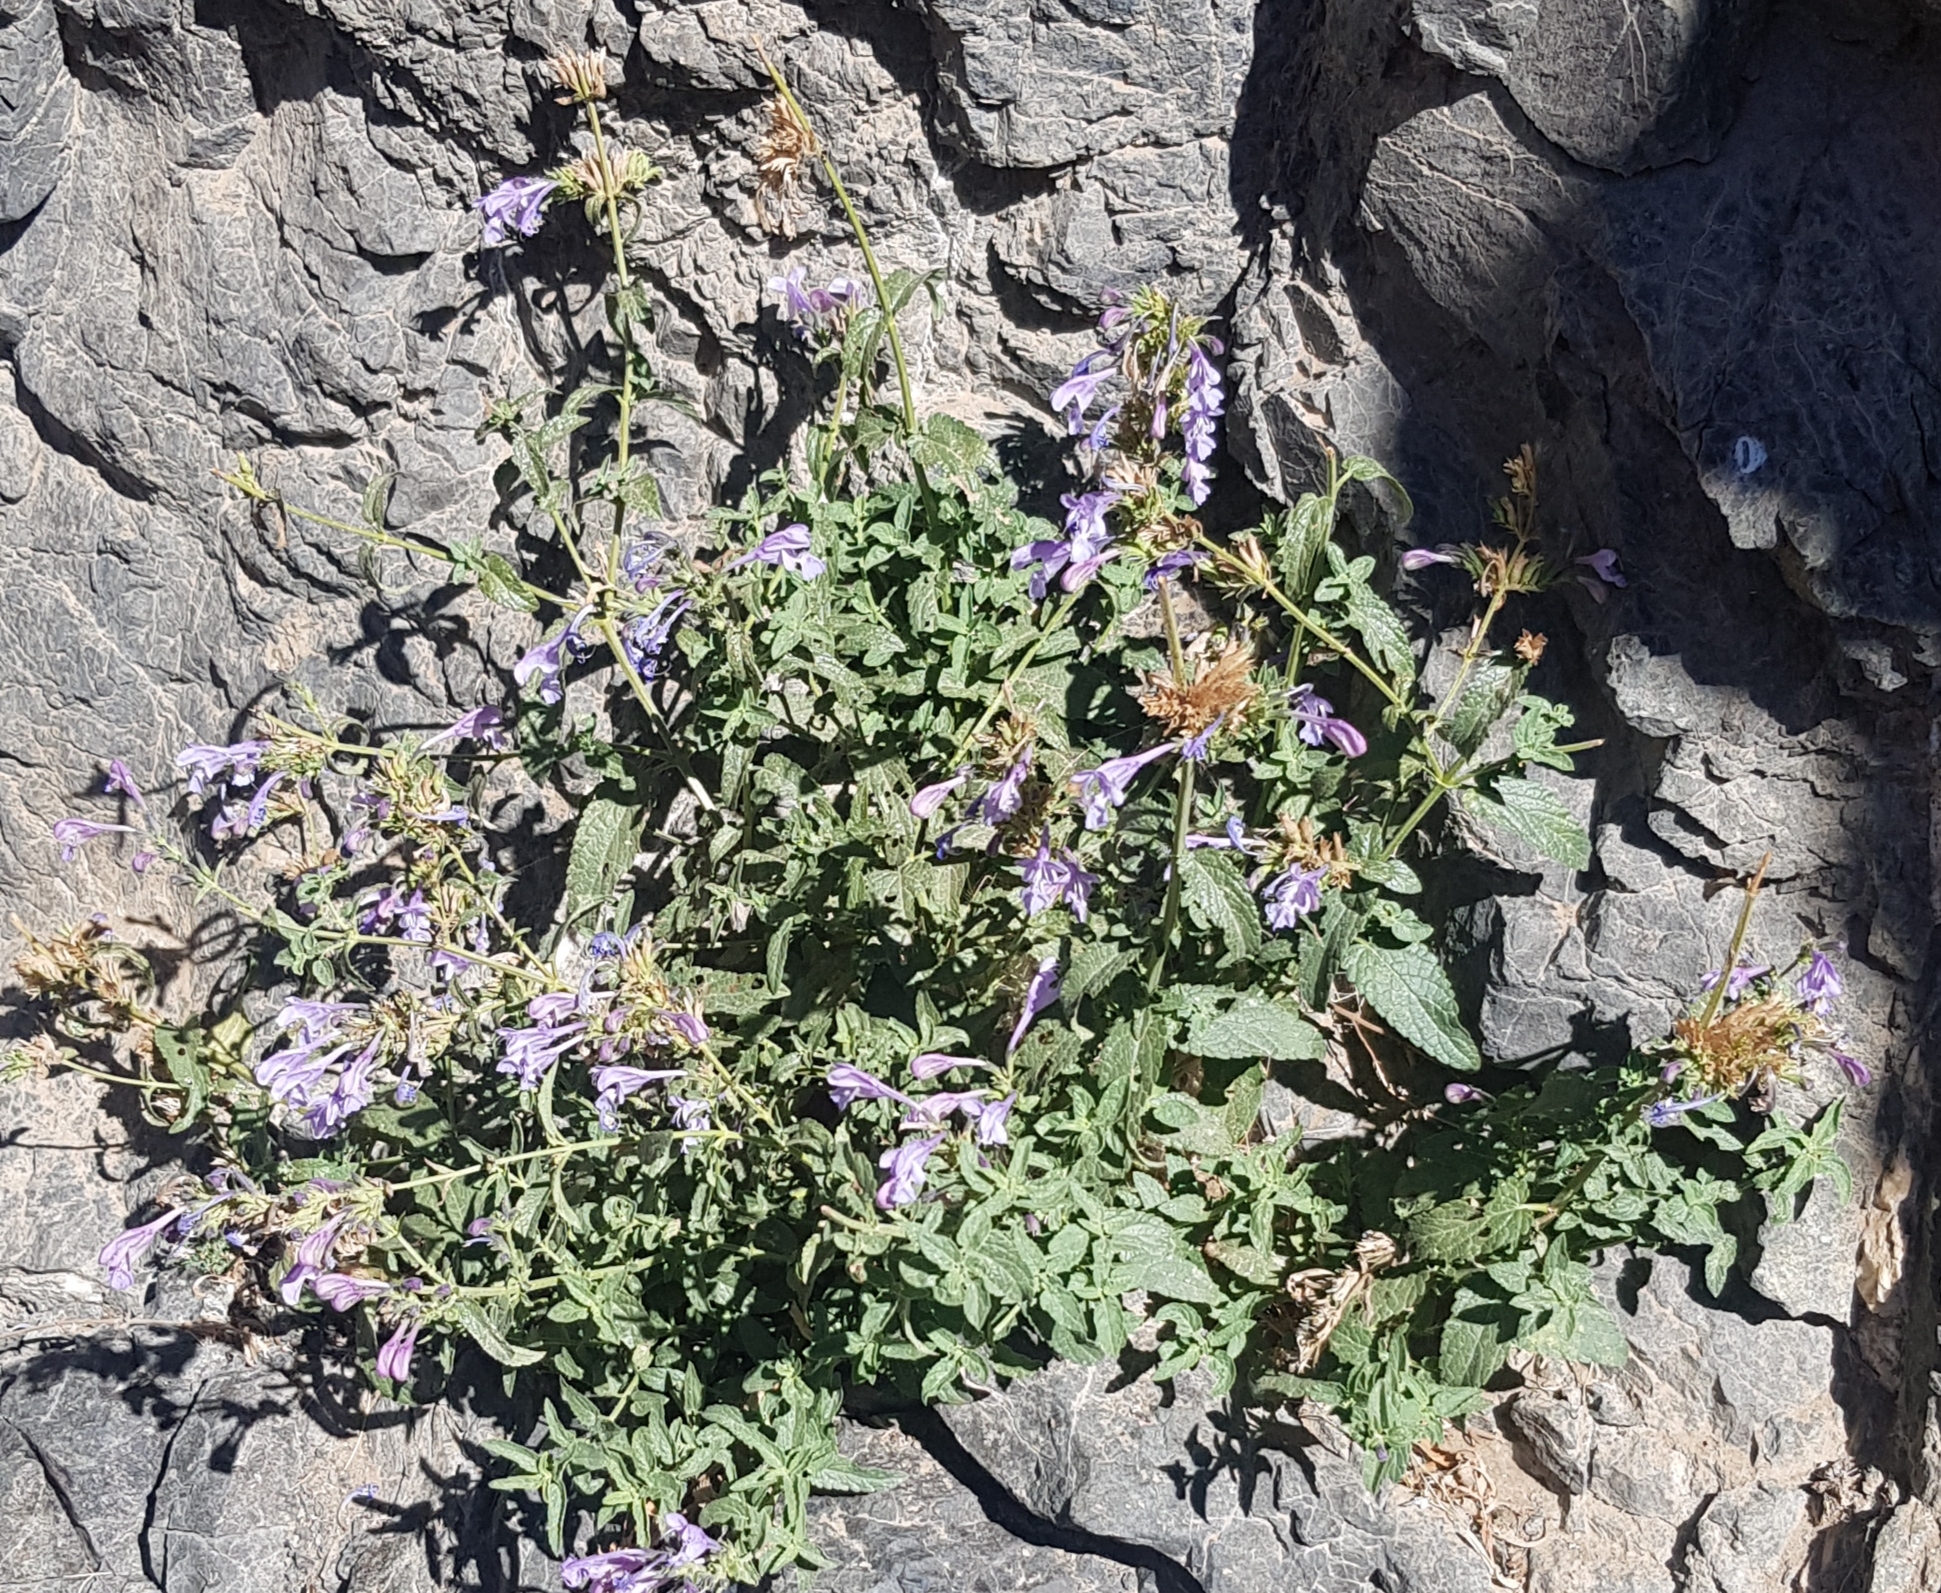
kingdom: Plantae
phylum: Tracheophyta
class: Magnoliopsida
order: Lamiales
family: Lamiaceae
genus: Nepeta
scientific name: Nepeta sibirica
